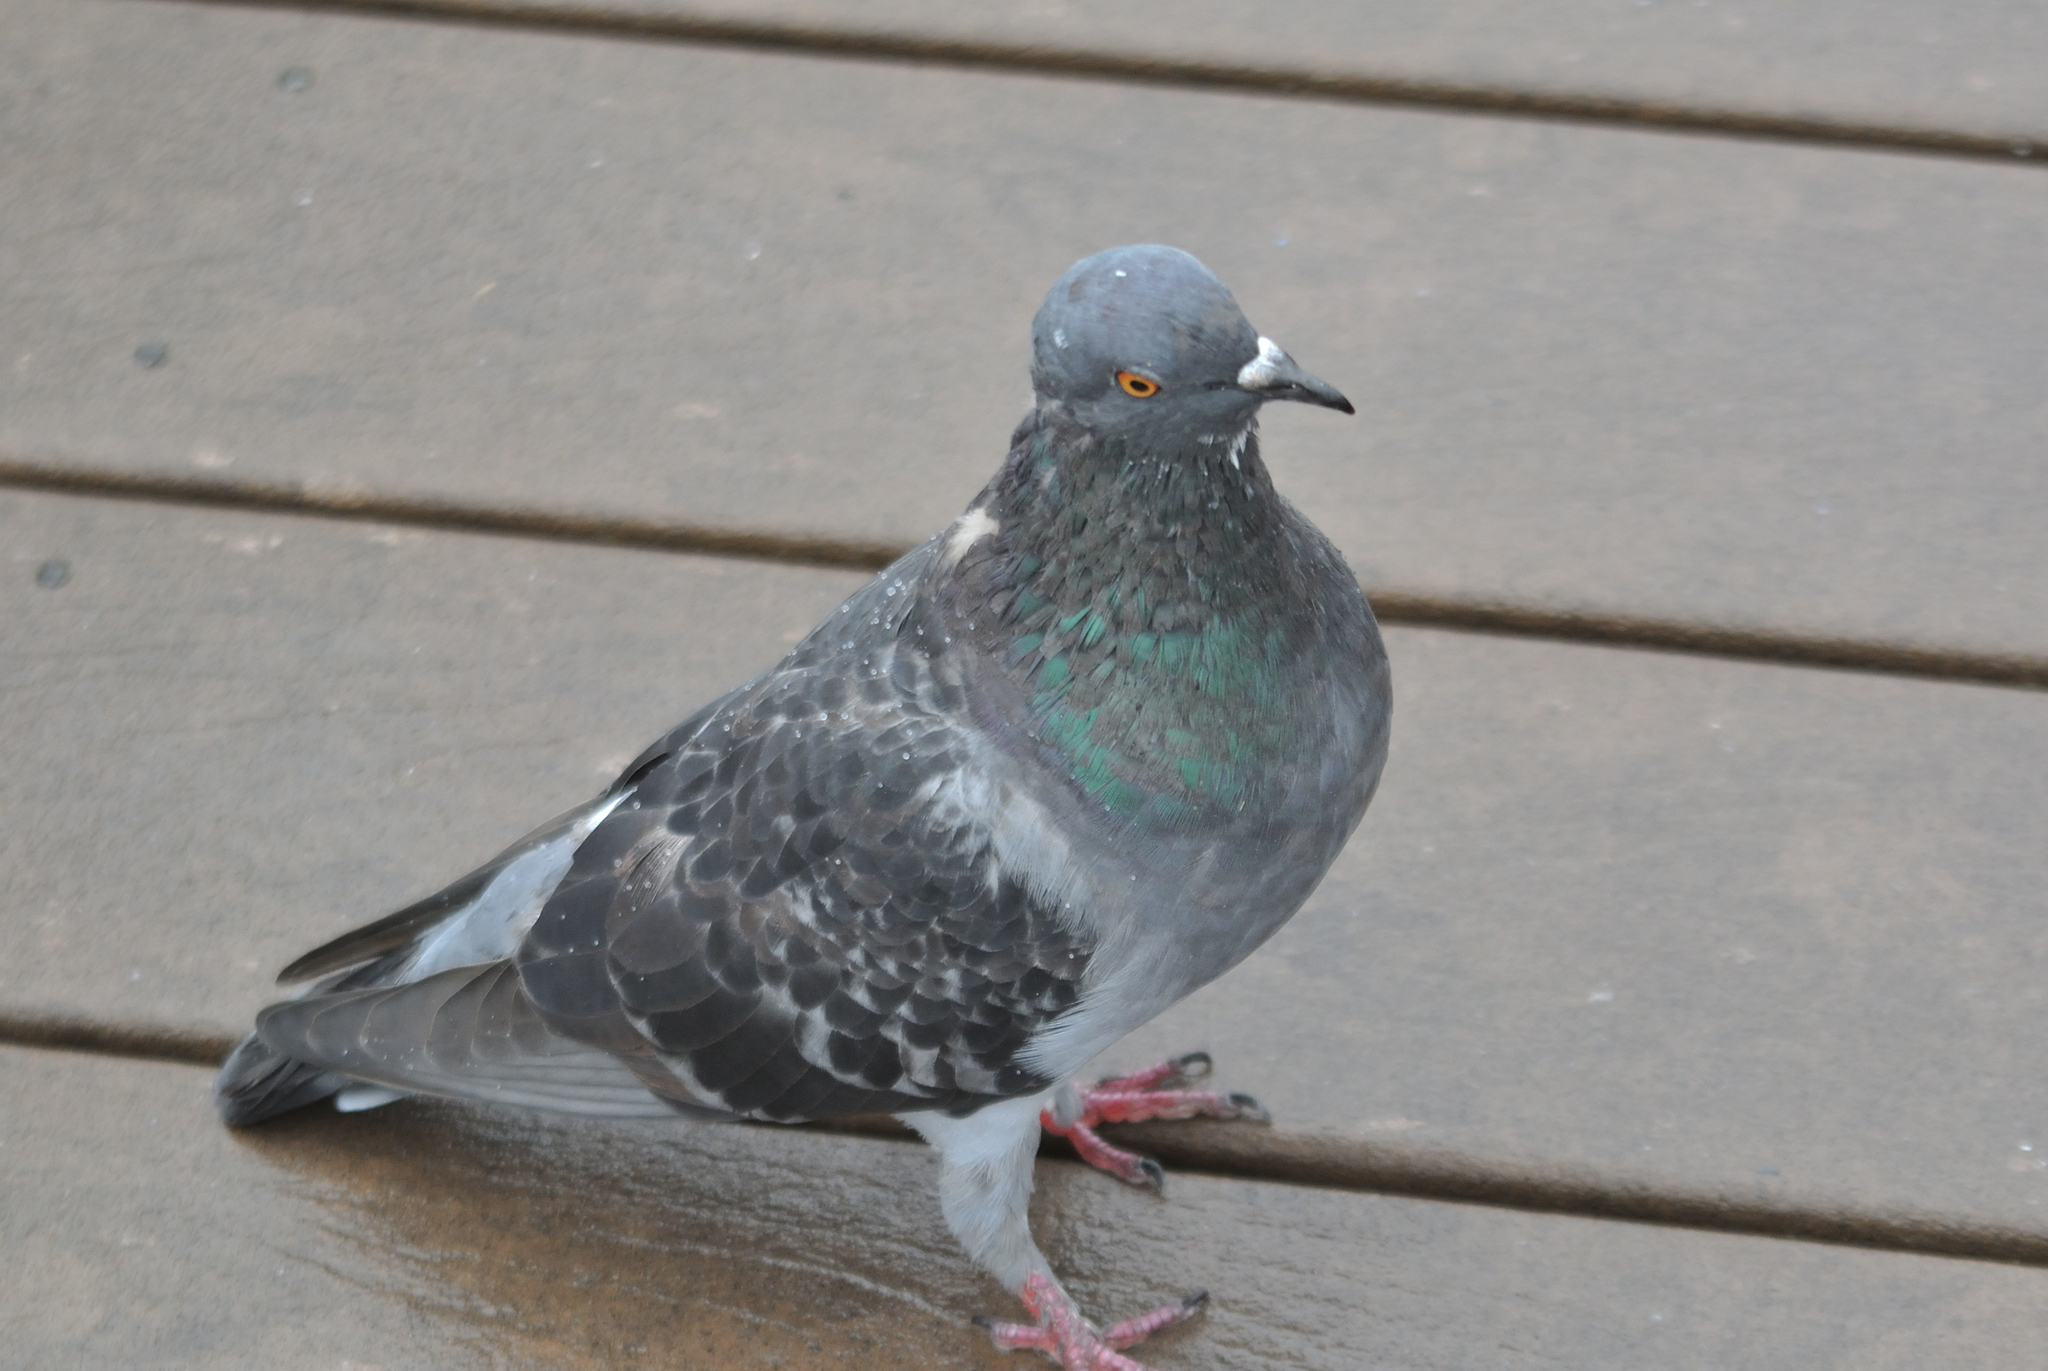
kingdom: Animalia
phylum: Chordata
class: Aves
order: Columbiformes
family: Columbidae
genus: Columba
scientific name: Columba livia
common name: Rock pigeon
